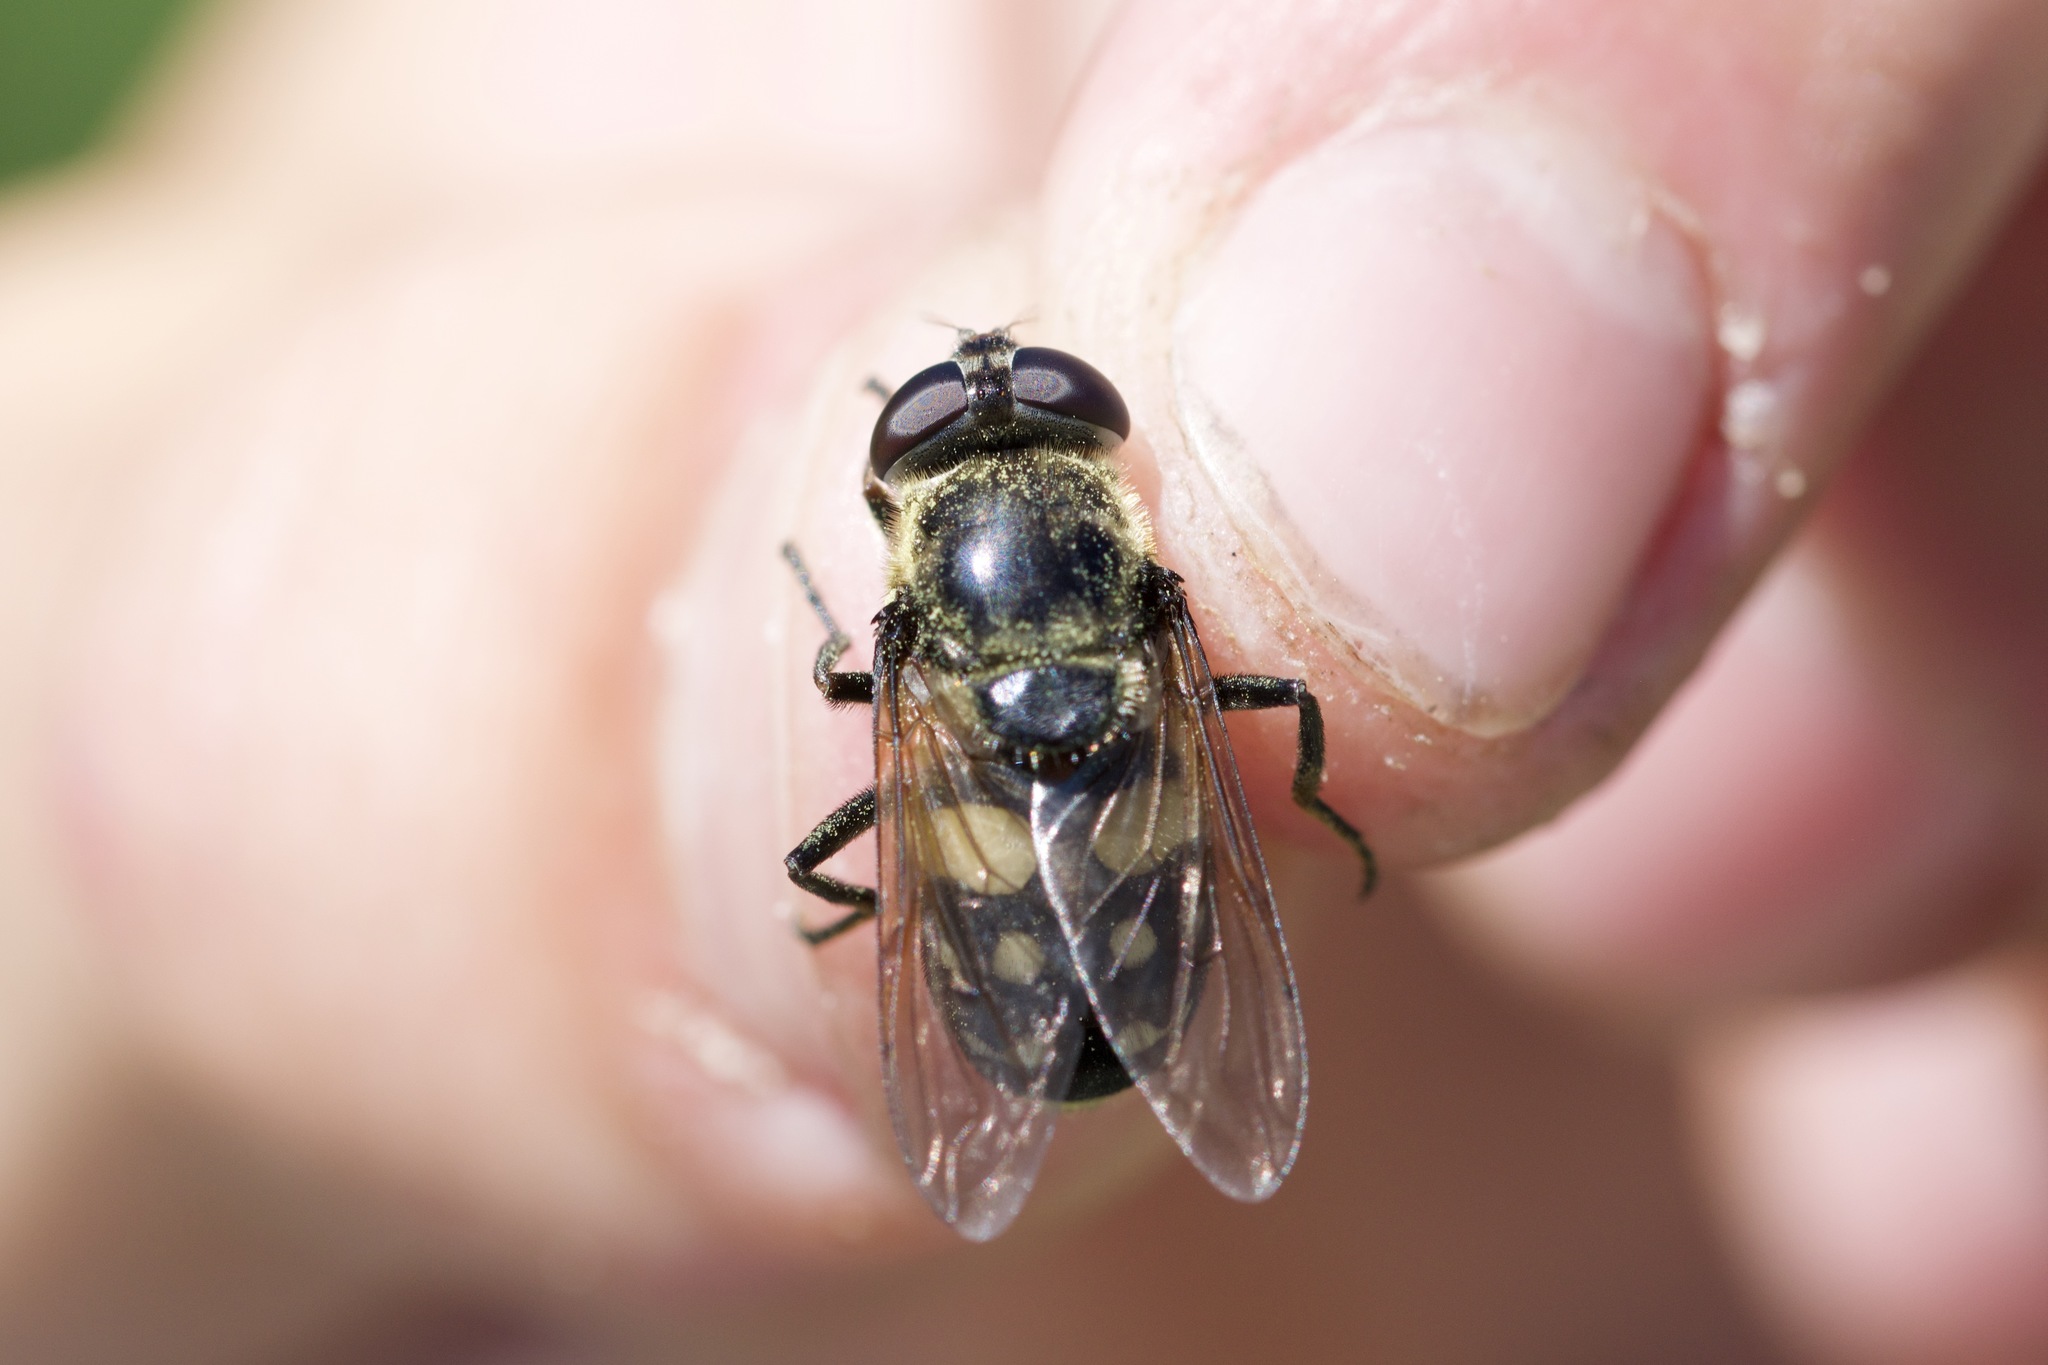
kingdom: Animalia
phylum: Arthropoda
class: Insecta
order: Diptera
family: Syrphidae
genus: Sericomyia
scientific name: Sericomyia lata
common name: White-spotted pond fly
